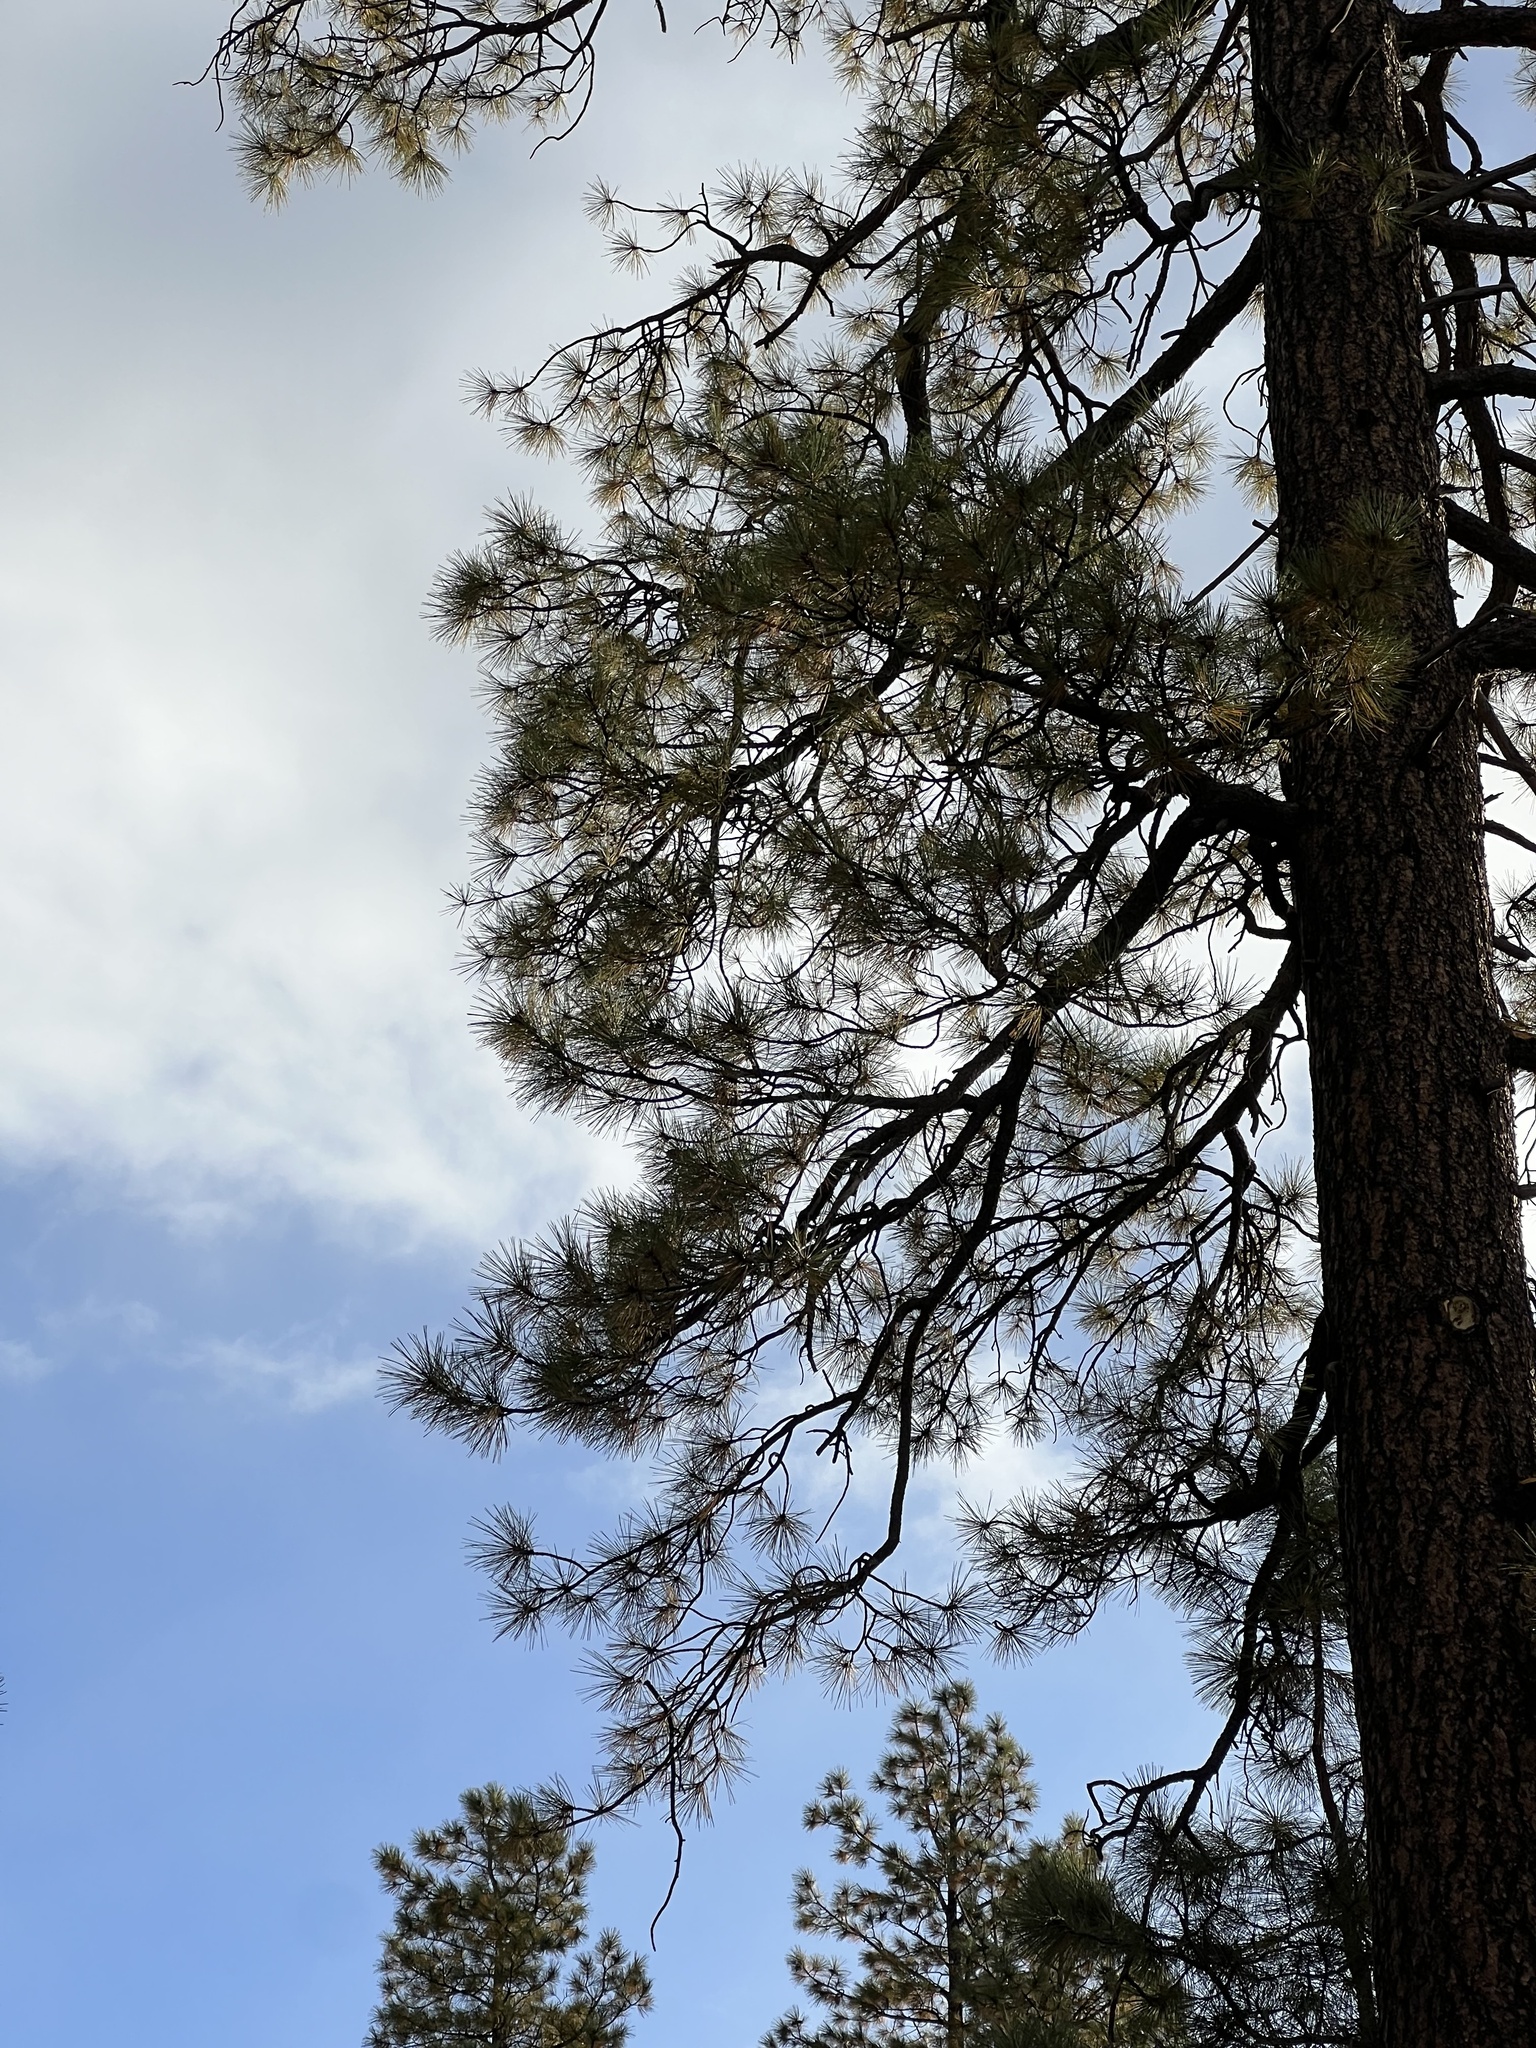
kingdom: Plantae
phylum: Tracheophyta
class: Pinopsida
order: Pinales
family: Pinaceae
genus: Pinus
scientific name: Pinus ponderosa
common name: Western yellow-pine
